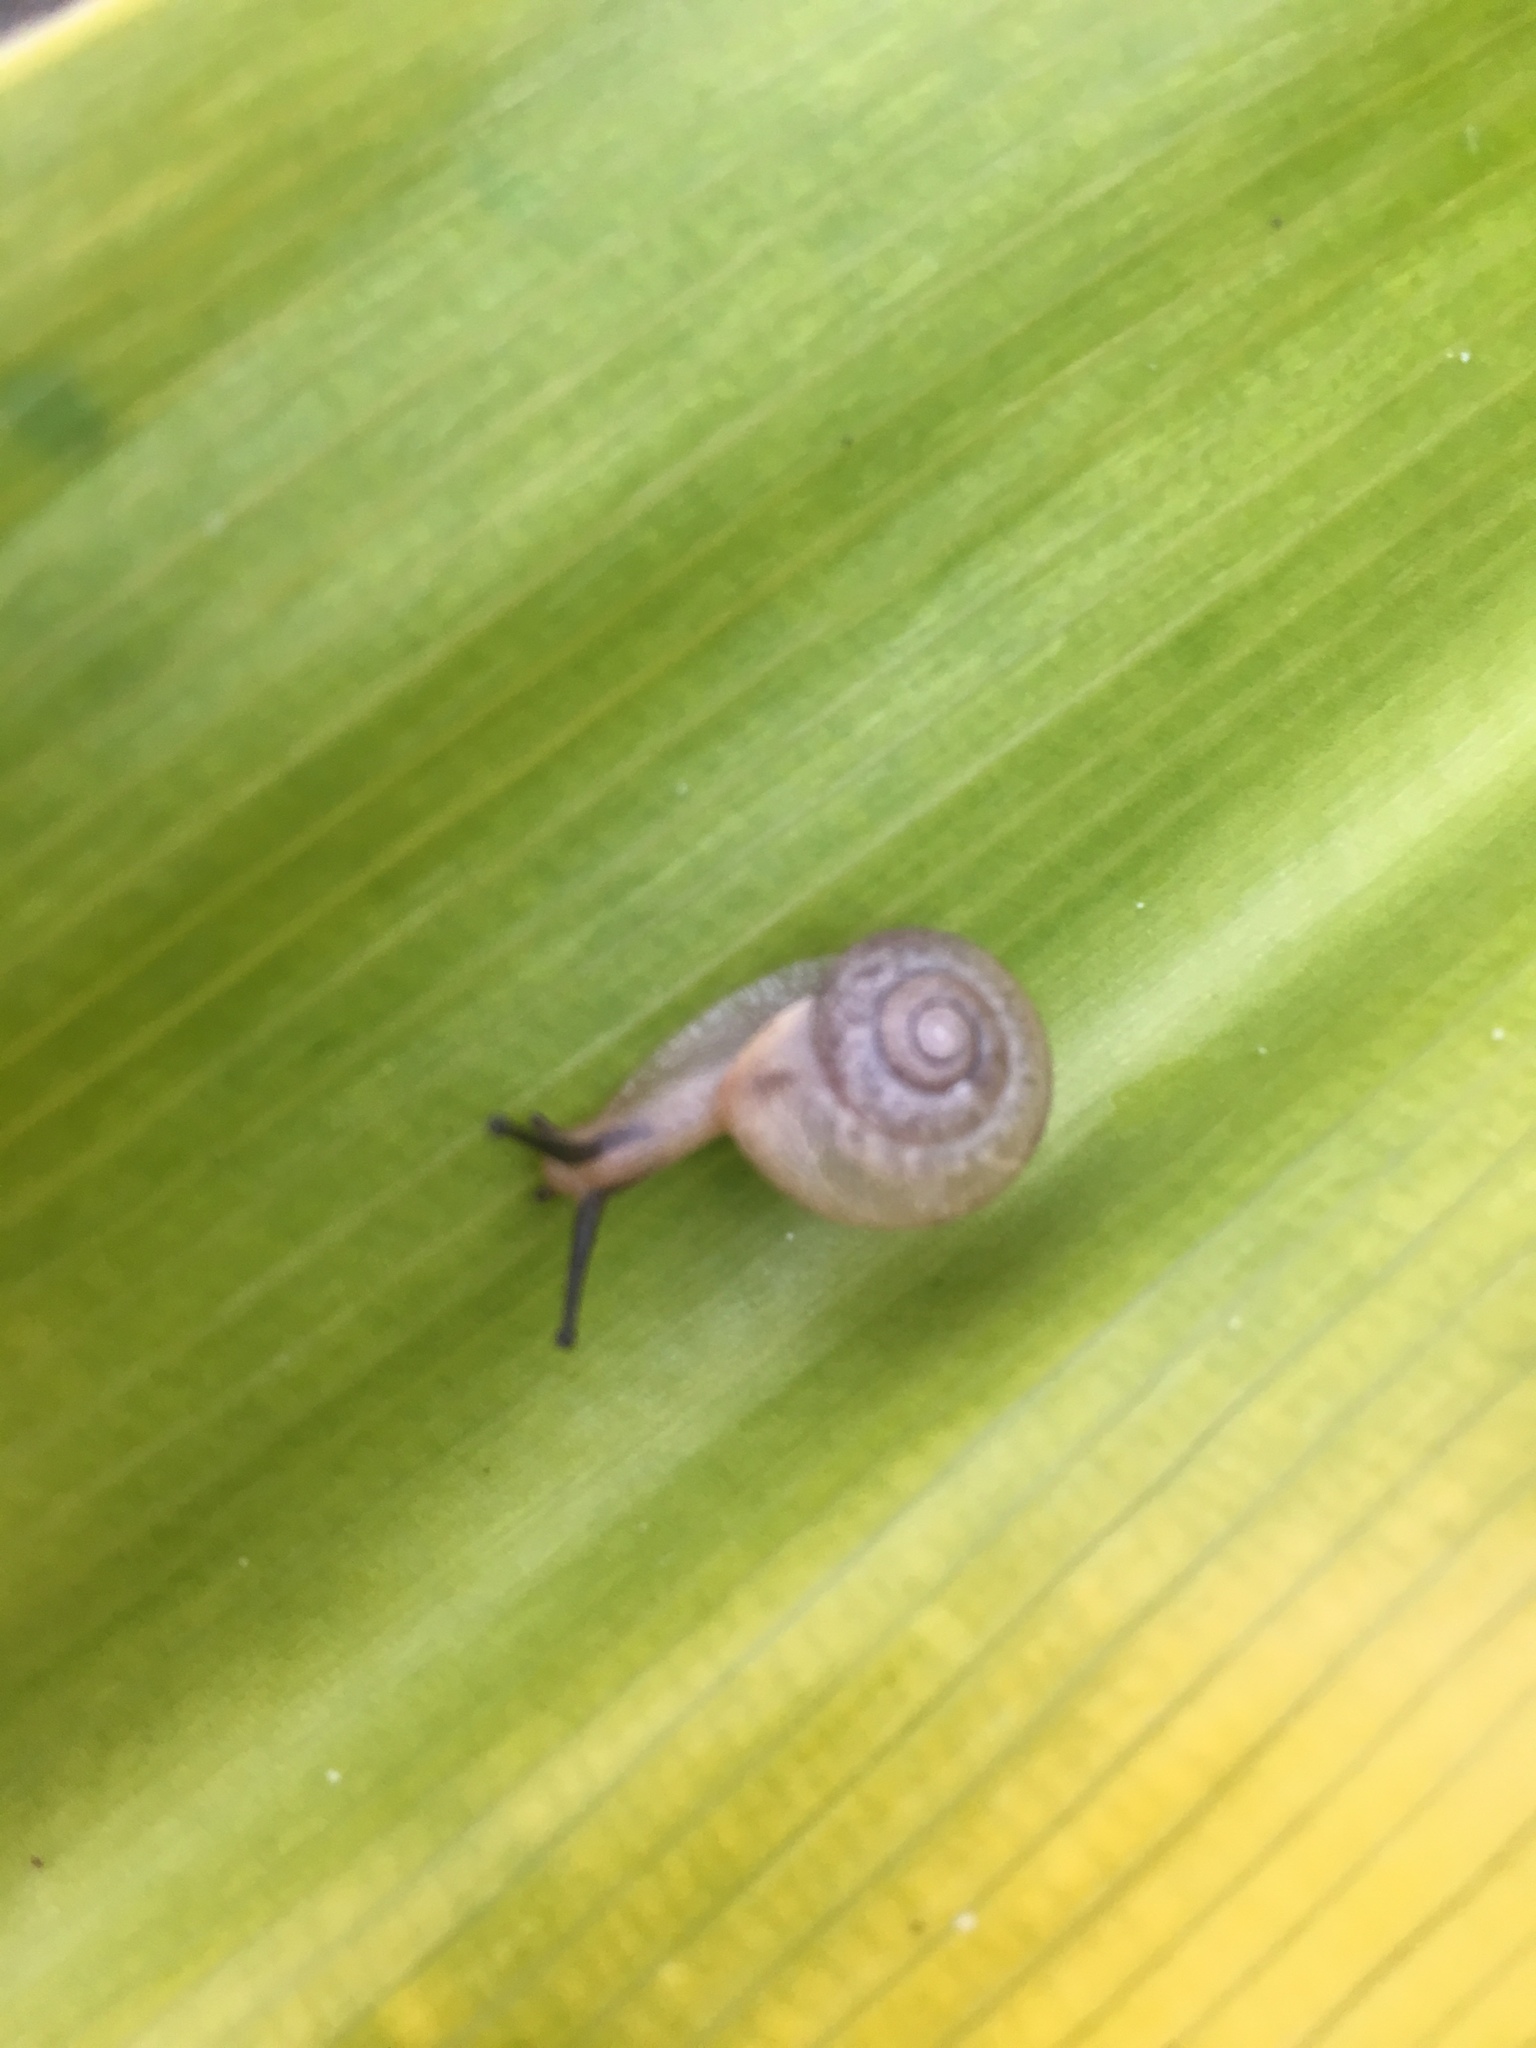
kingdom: Animalia
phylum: Mollusca
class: Gastropoda
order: Stylommatophora
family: Camaenidae
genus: Bradybaena
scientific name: Bradybaena similaris
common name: Asian trampsnail
